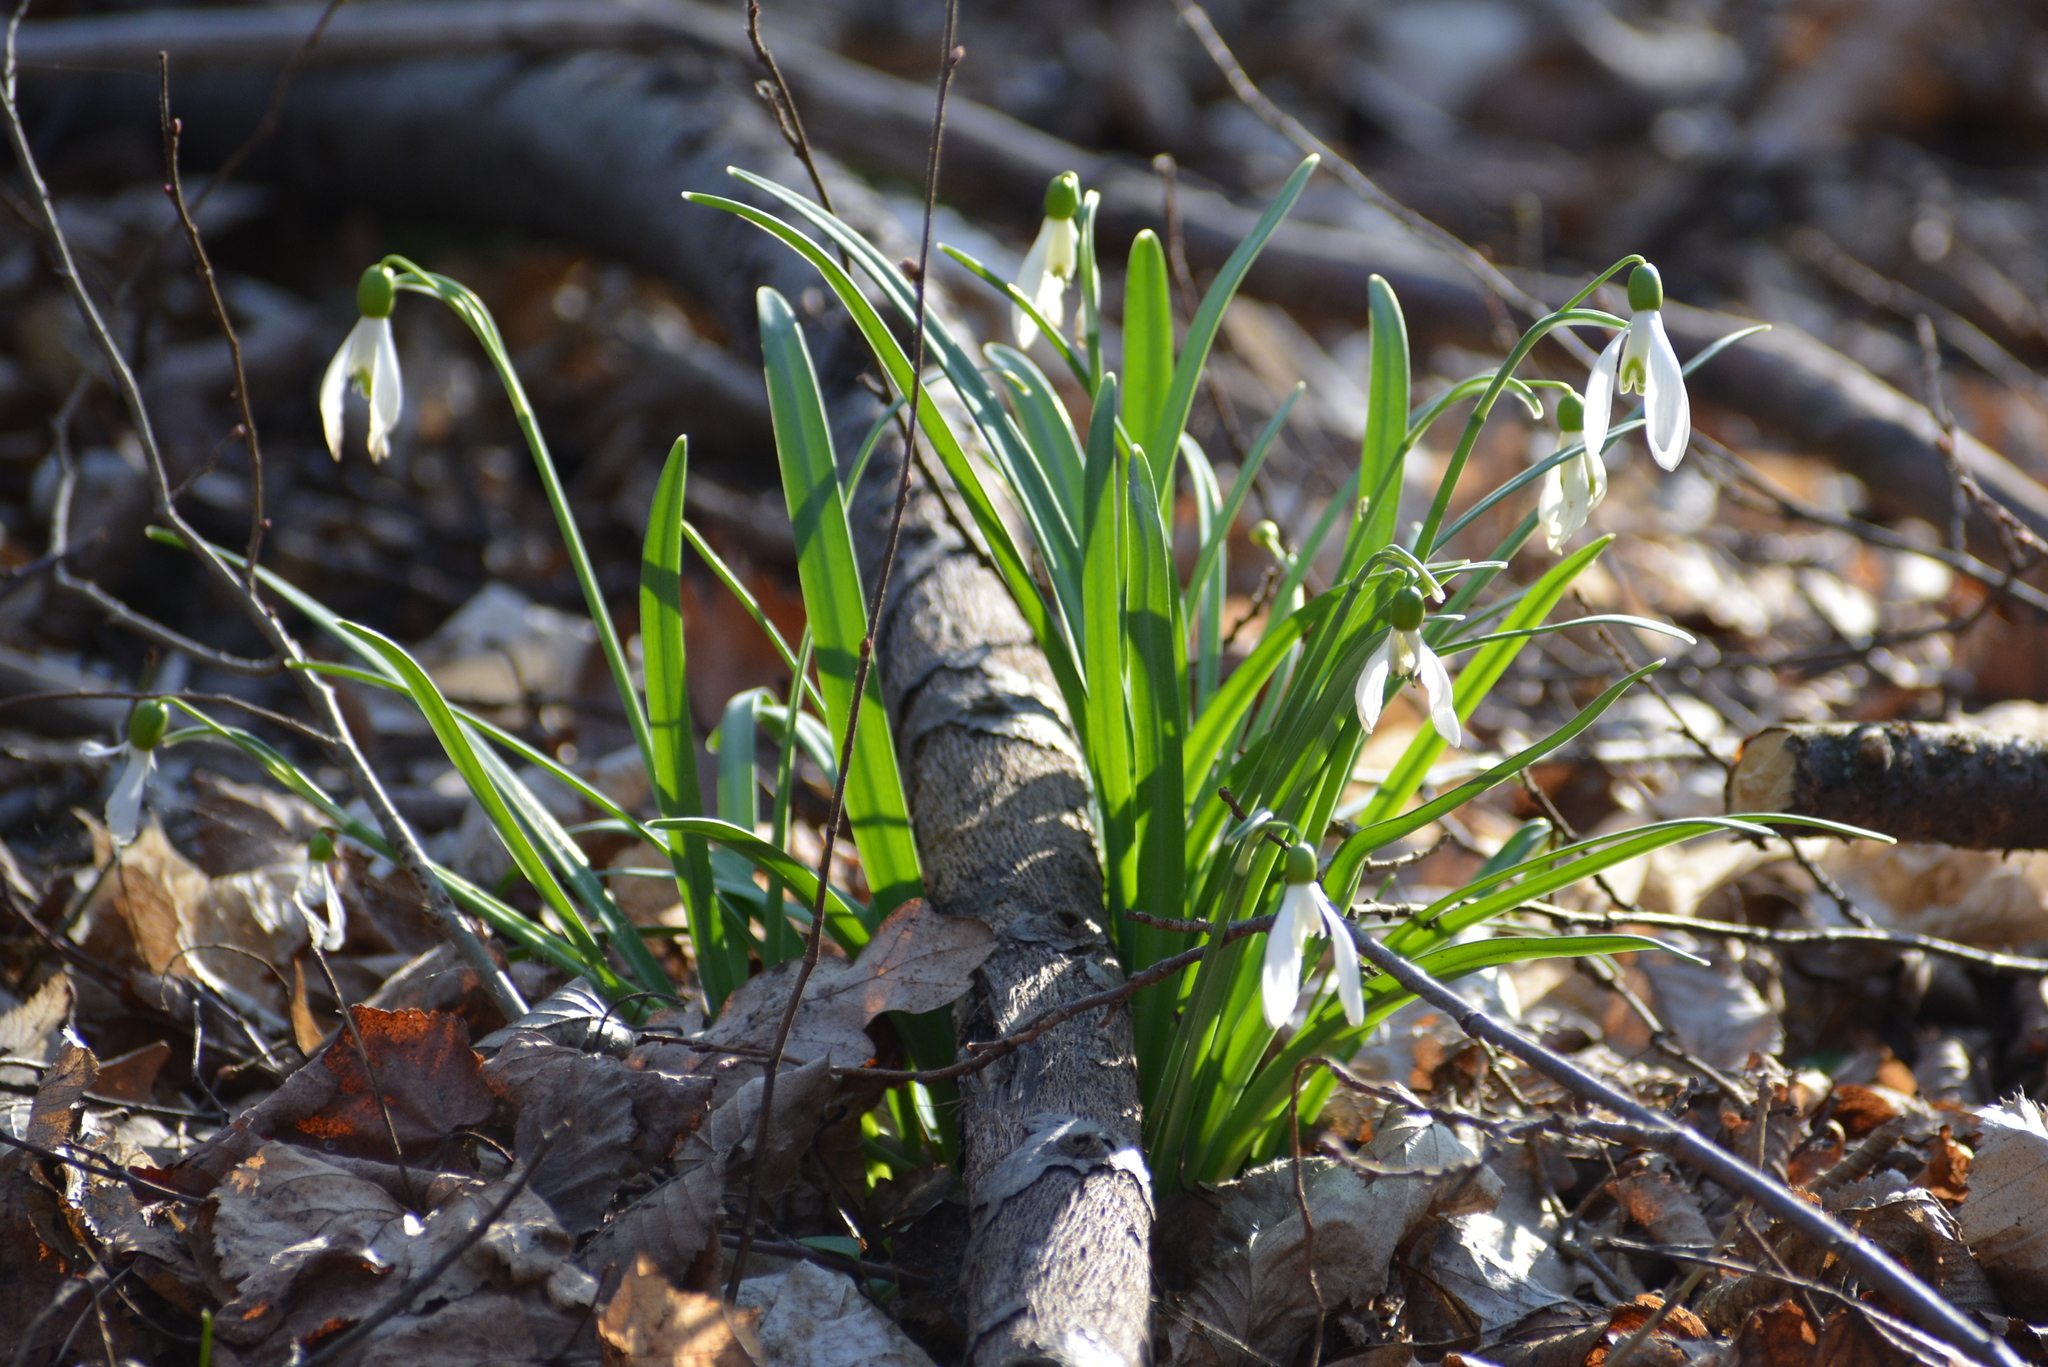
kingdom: Plantae
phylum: Tracheophyta
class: Liliopsida
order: Asparagales
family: Amaryllidaceae
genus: Galanthus
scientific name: Galanthus nivalis
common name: Snowdrop
